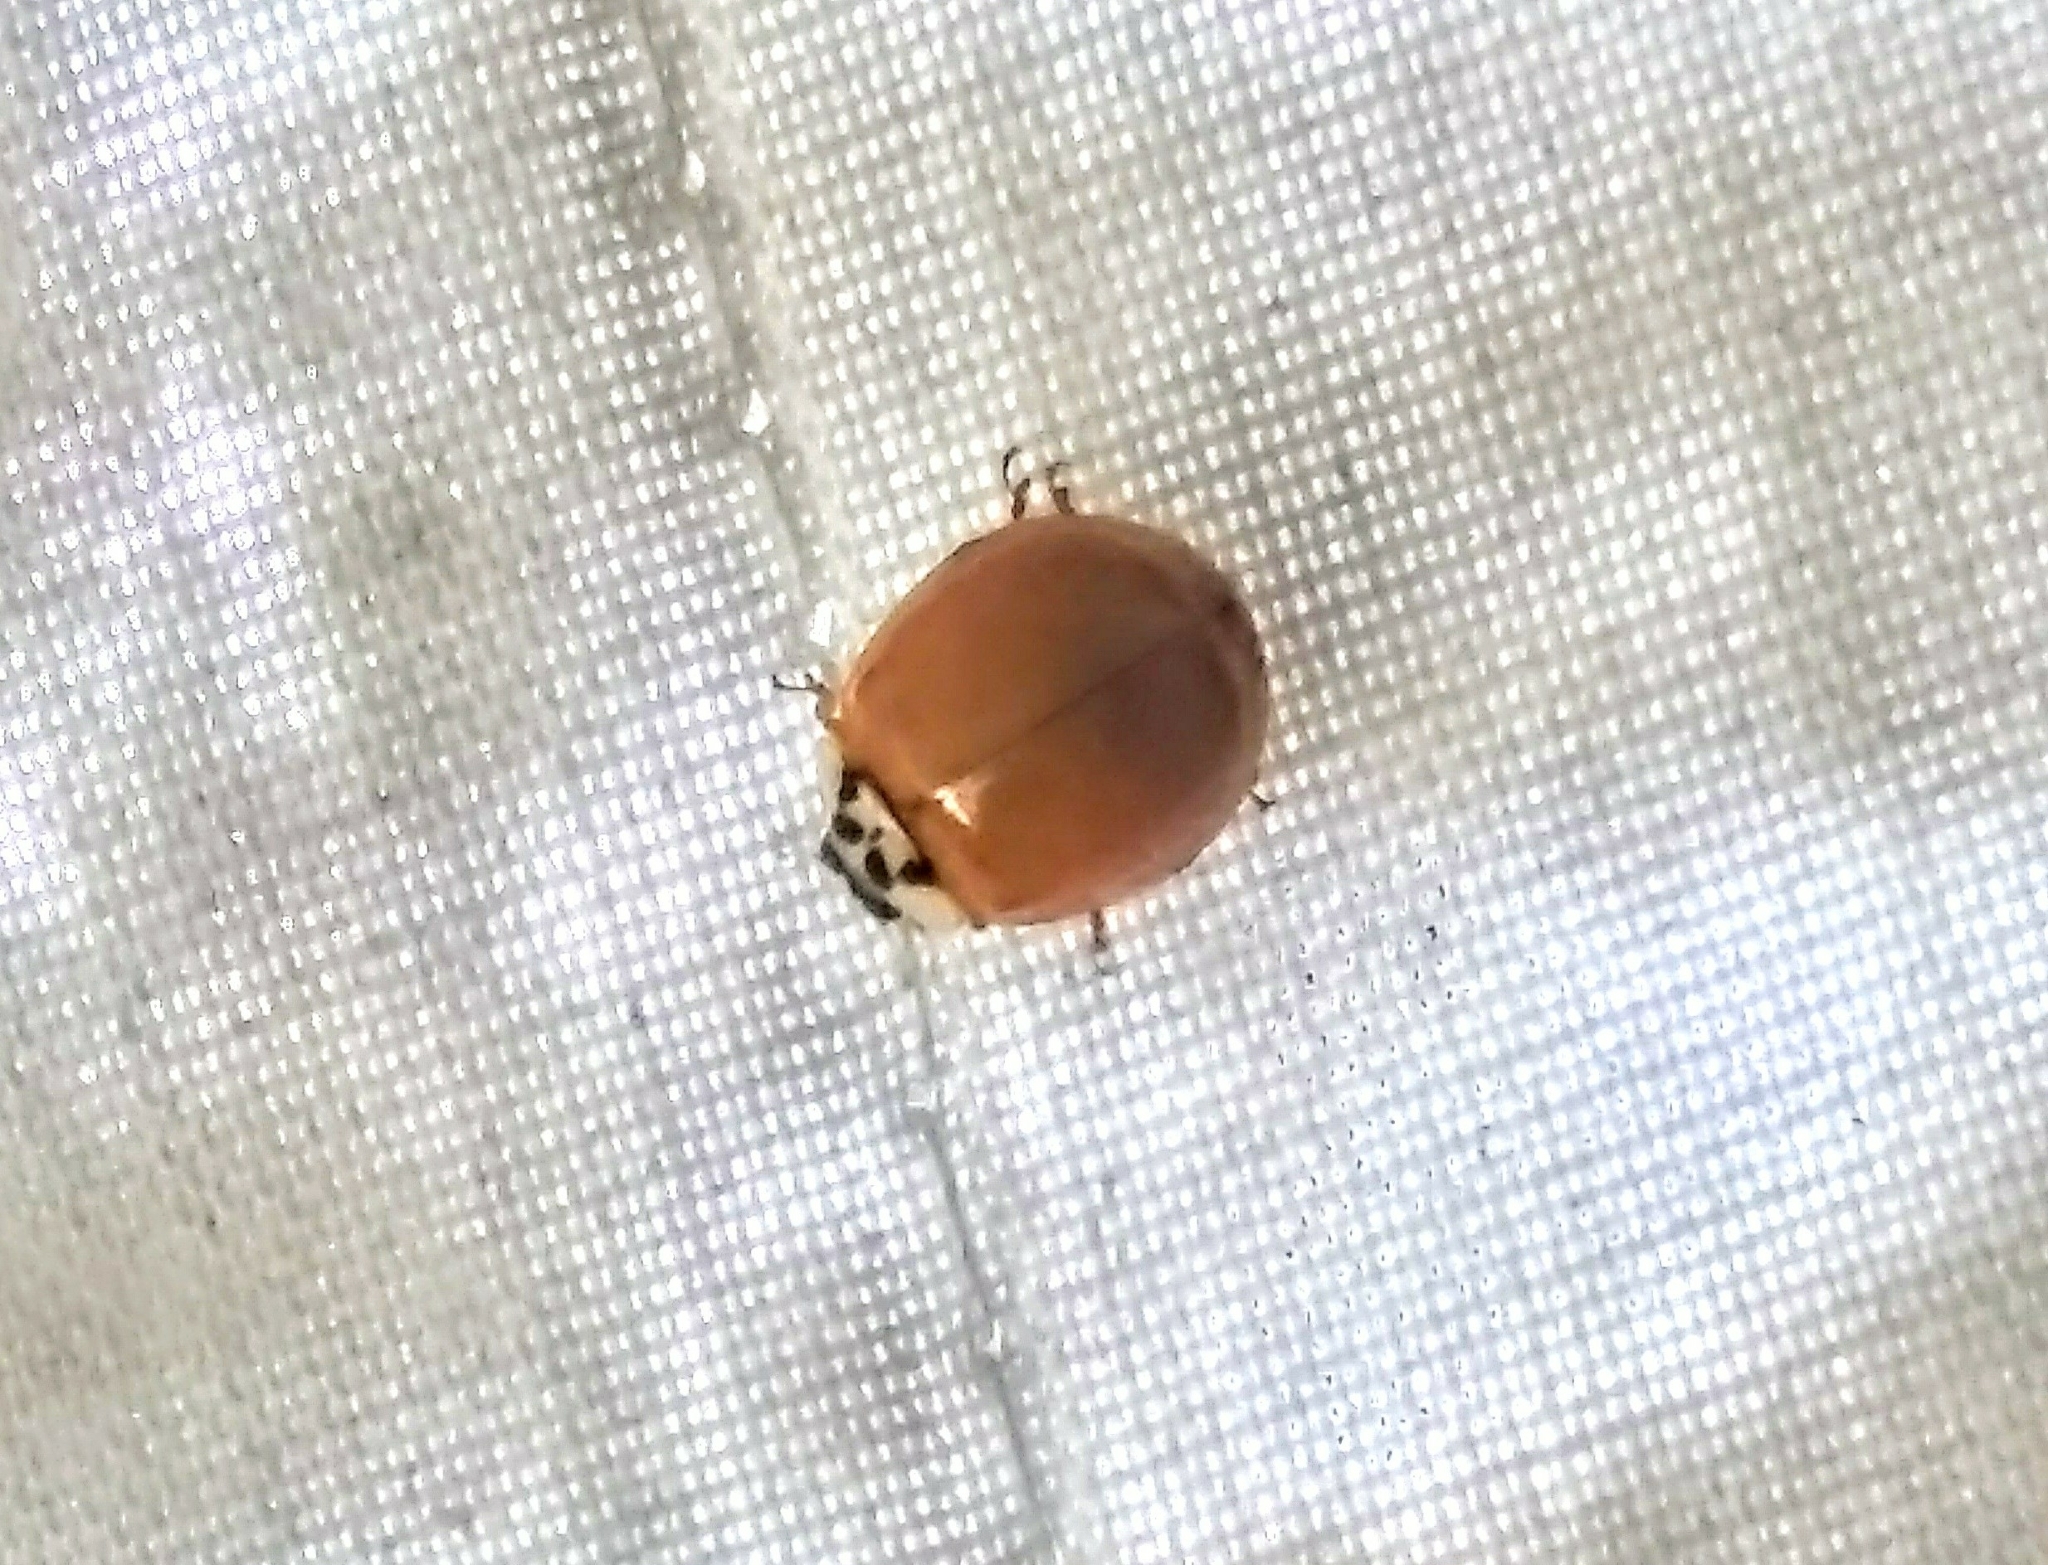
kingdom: Animalia
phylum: Arthropoda
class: Insecta
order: Coleoptera
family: Coccinellidae
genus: Harmonia
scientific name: Harmonia axyridis
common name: Harlequin ladybird
